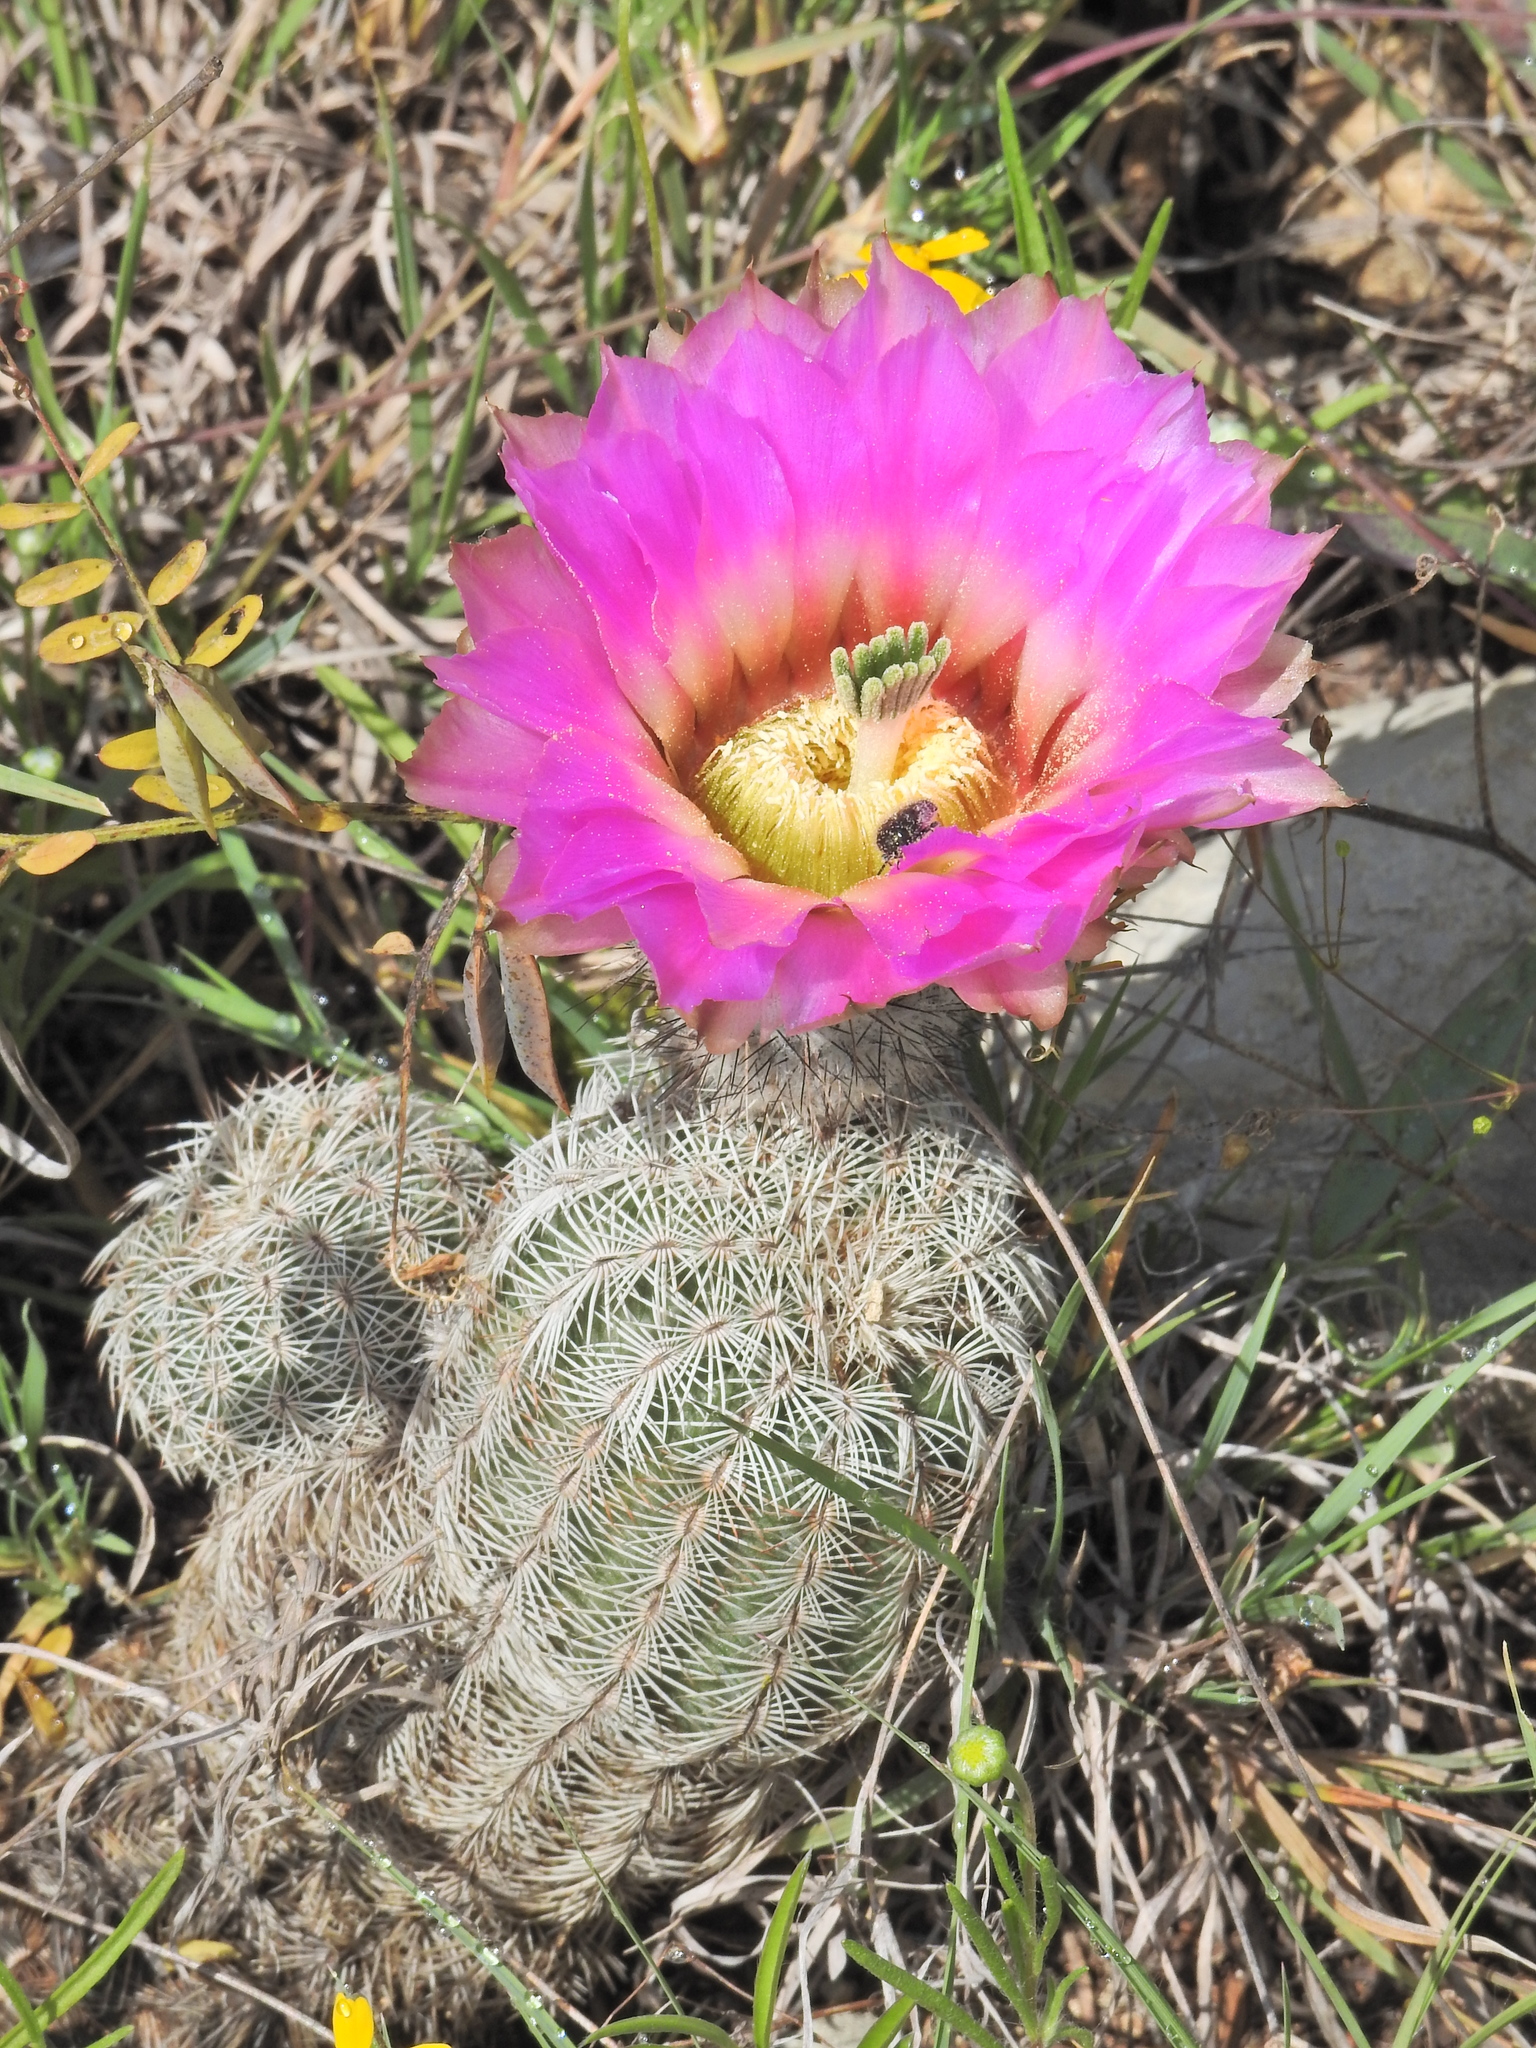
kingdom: Plantae
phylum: Tracheophyta
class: Magnoliopsida
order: Caryophyllales
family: Cactaceae
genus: Echinocereus
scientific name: Echinocereus reichenbachii
